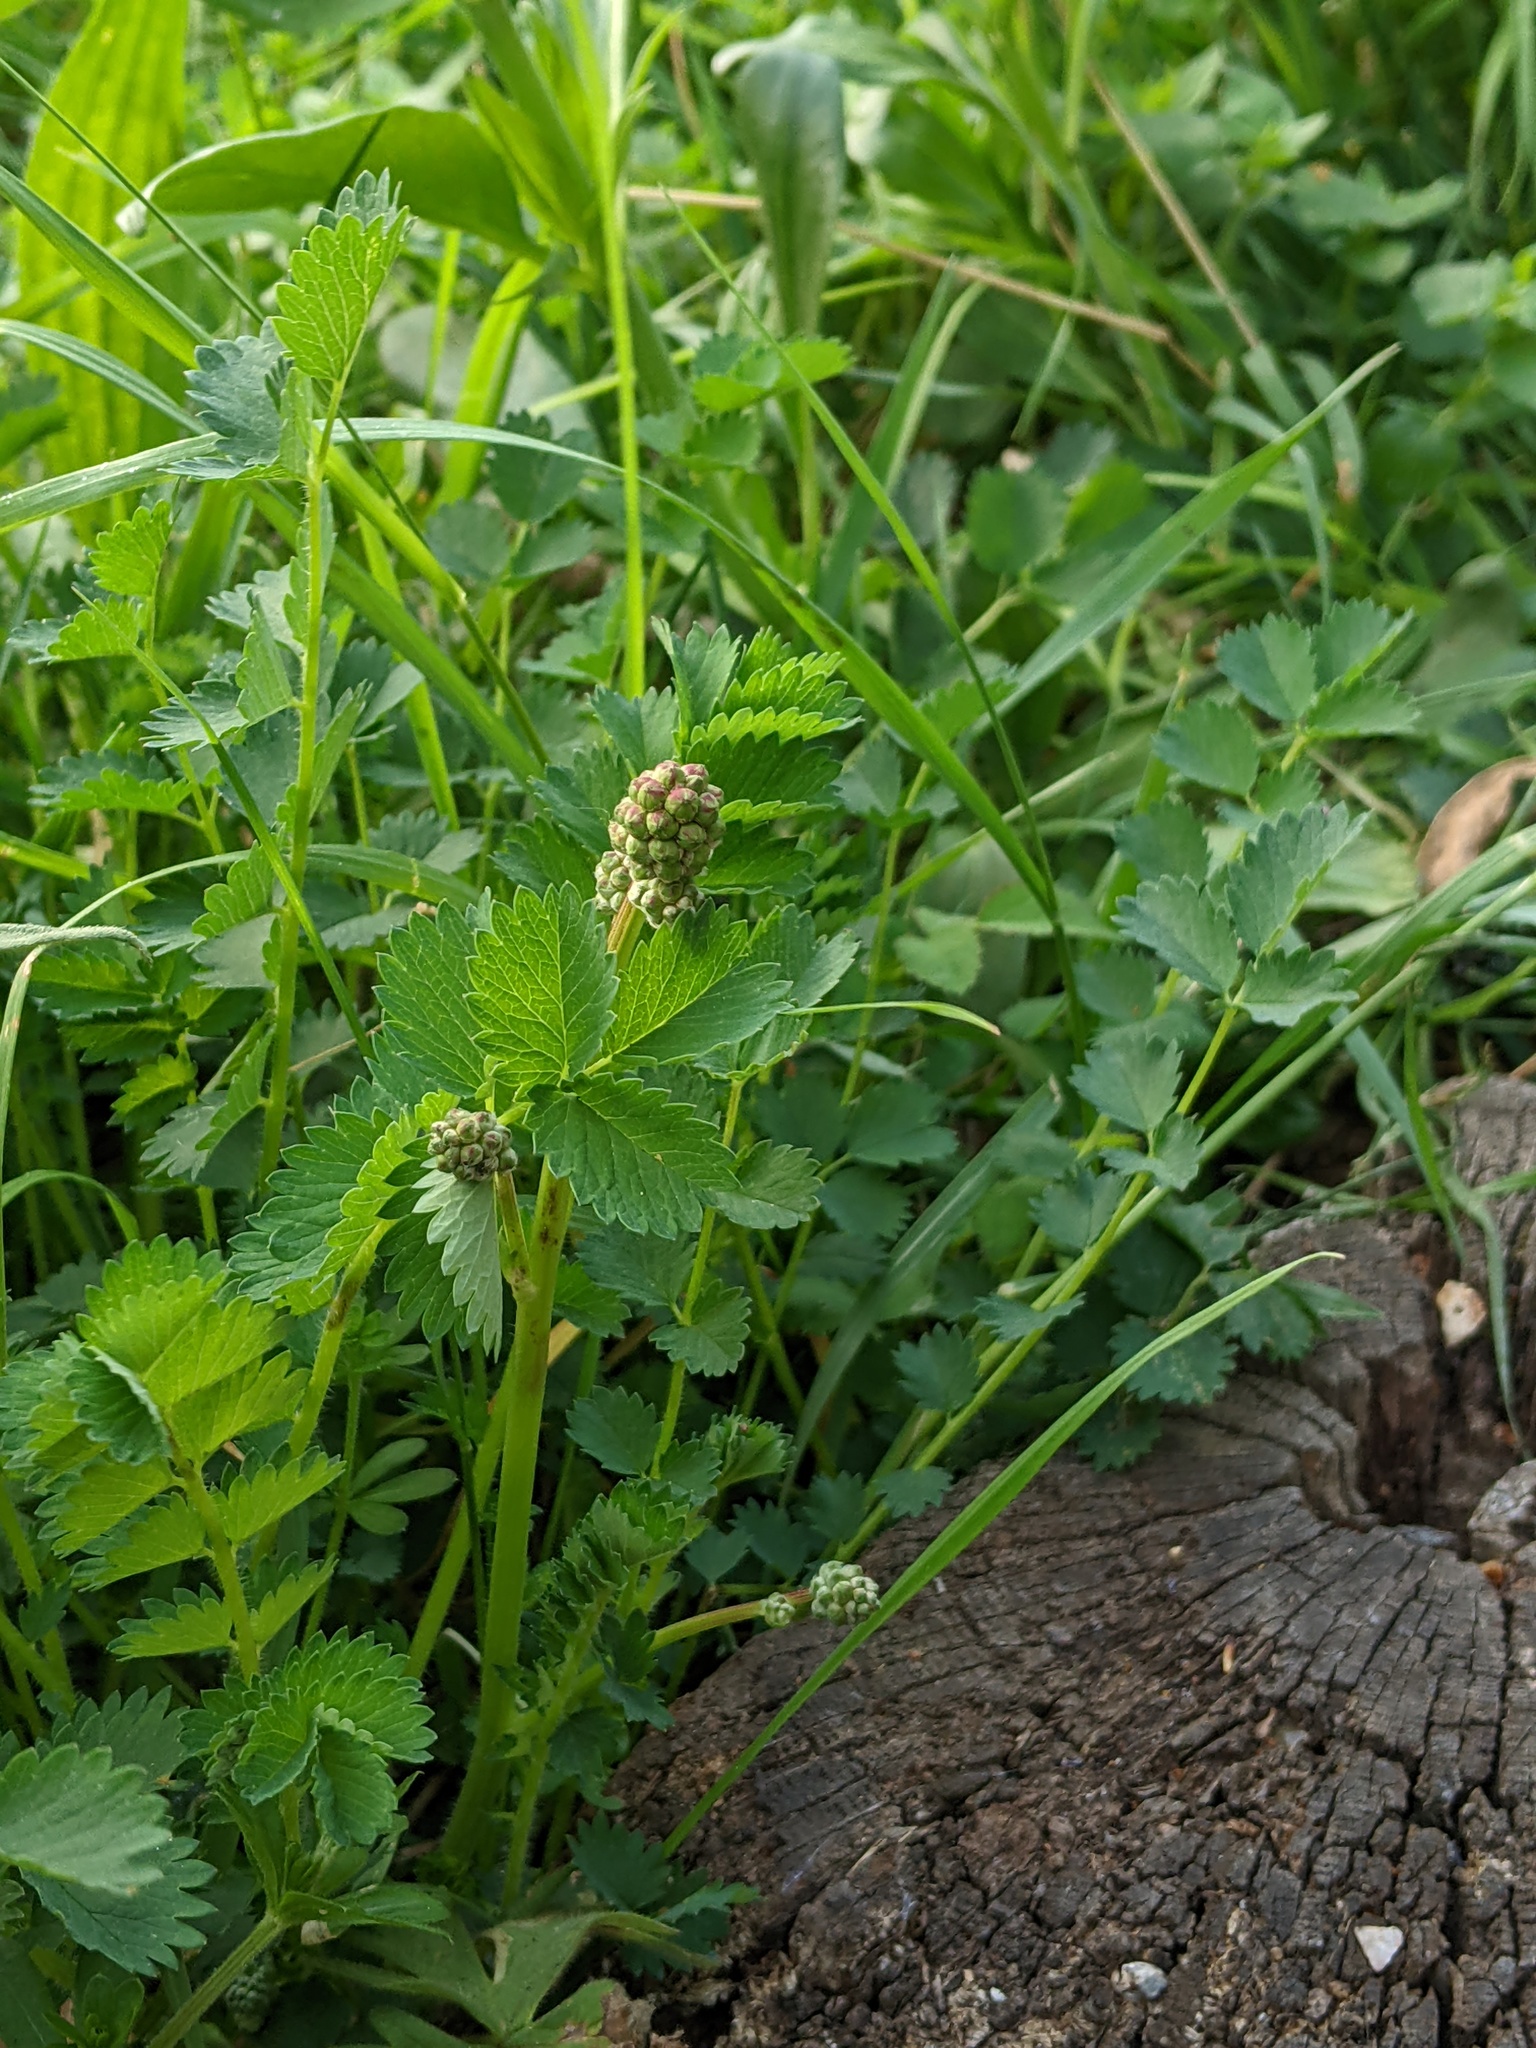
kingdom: Plantae
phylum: Tracheophyta
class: Magnoliopsida
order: Rosales
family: Rosaceae
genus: Poterium
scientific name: Poterium sanguisorba
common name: Salad burnet
